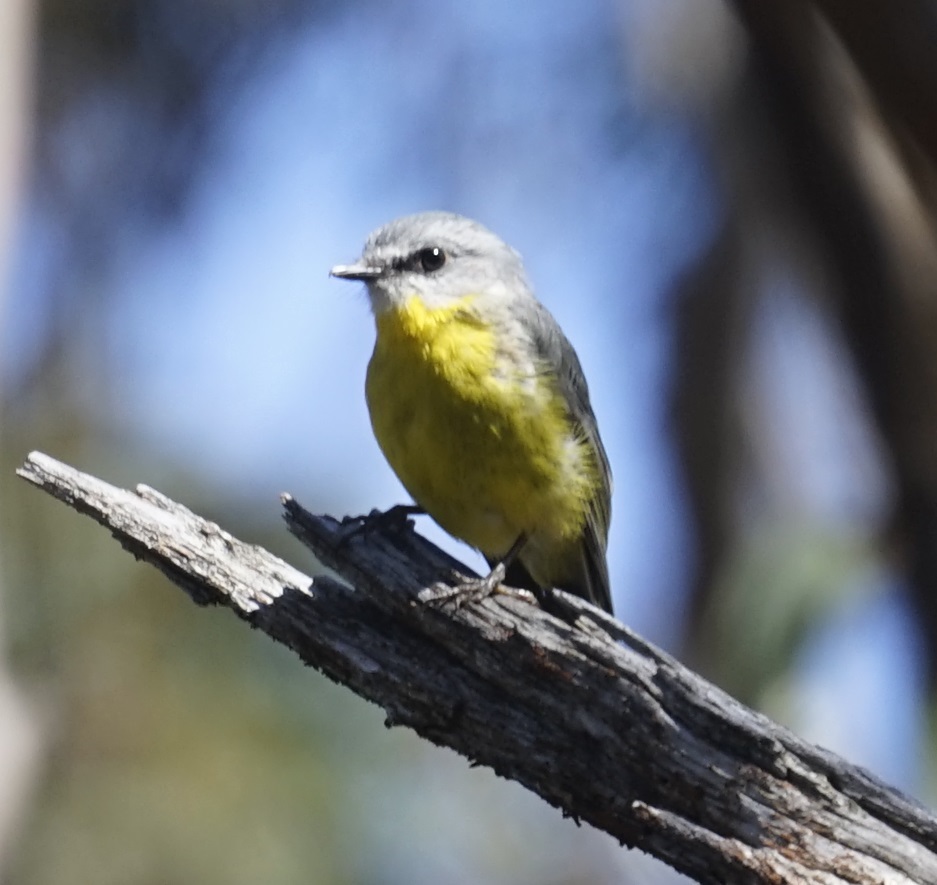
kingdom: Animalia
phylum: Chordata
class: Aves
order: Passeriformes
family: Petroicidae
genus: Eopsaltria
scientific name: Eopsaltria australis
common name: Eastern yellow robin
